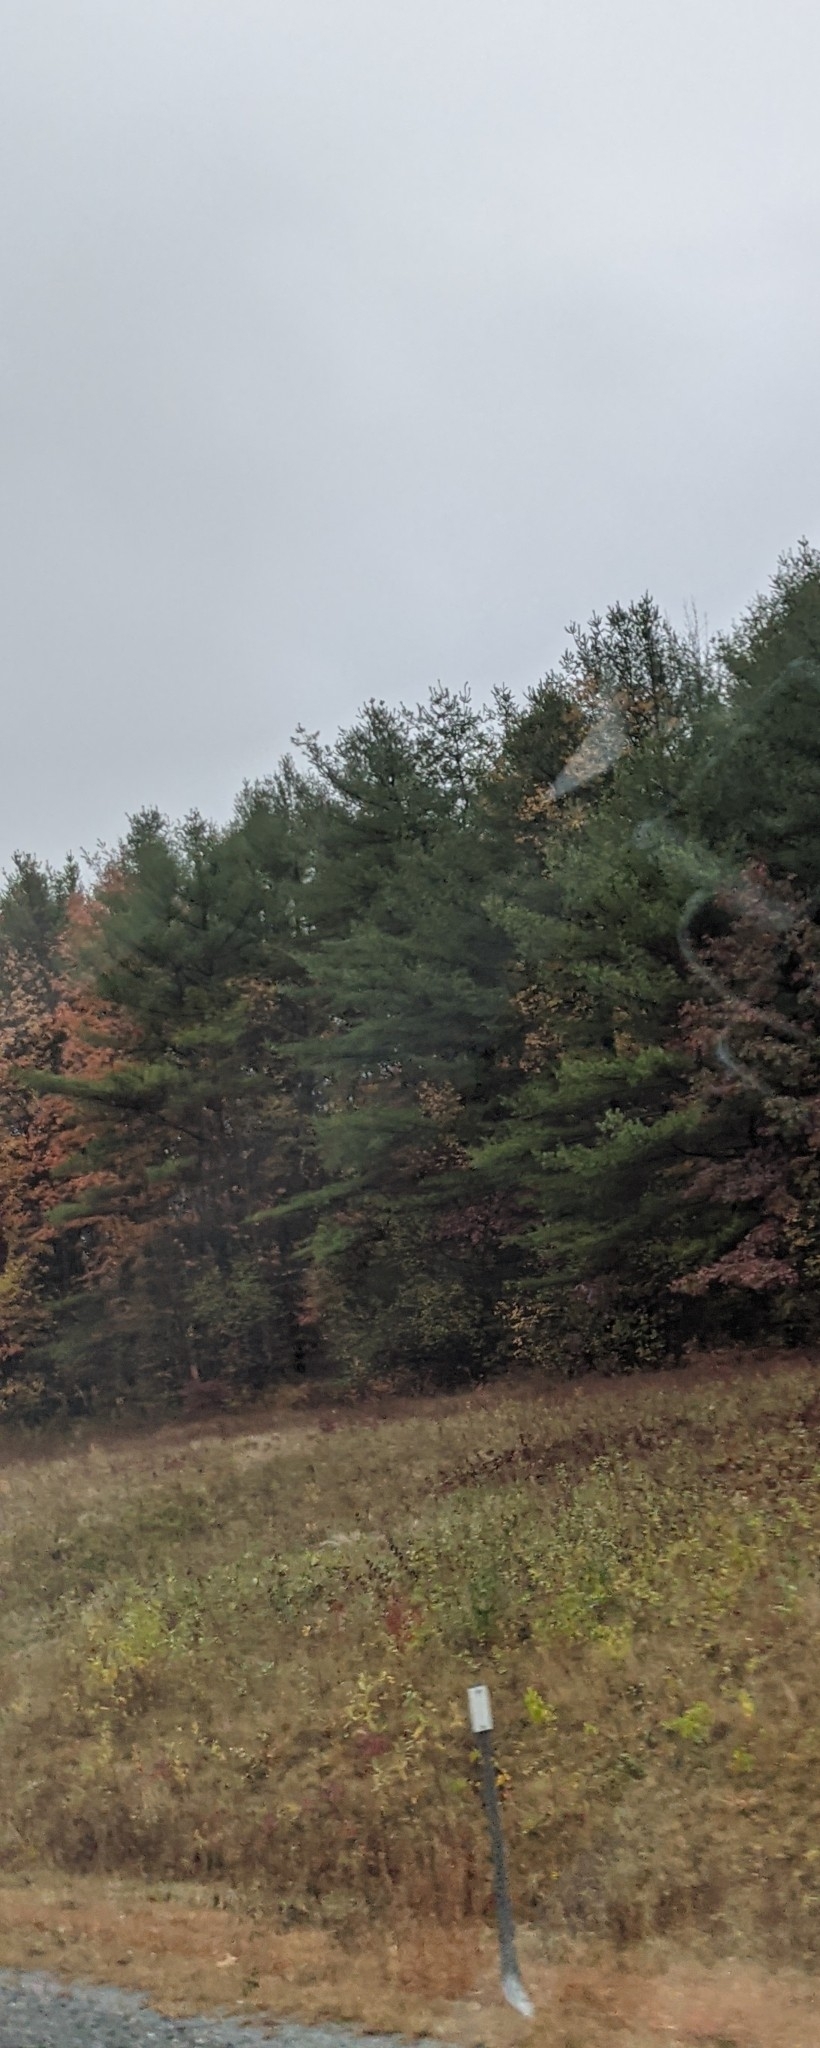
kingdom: Plantae
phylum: Tracheophyta
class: Pinopsida
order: Pinales
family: Pinaceae
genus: Pinus
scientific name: Pinus strobus
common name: Weymouth pine
